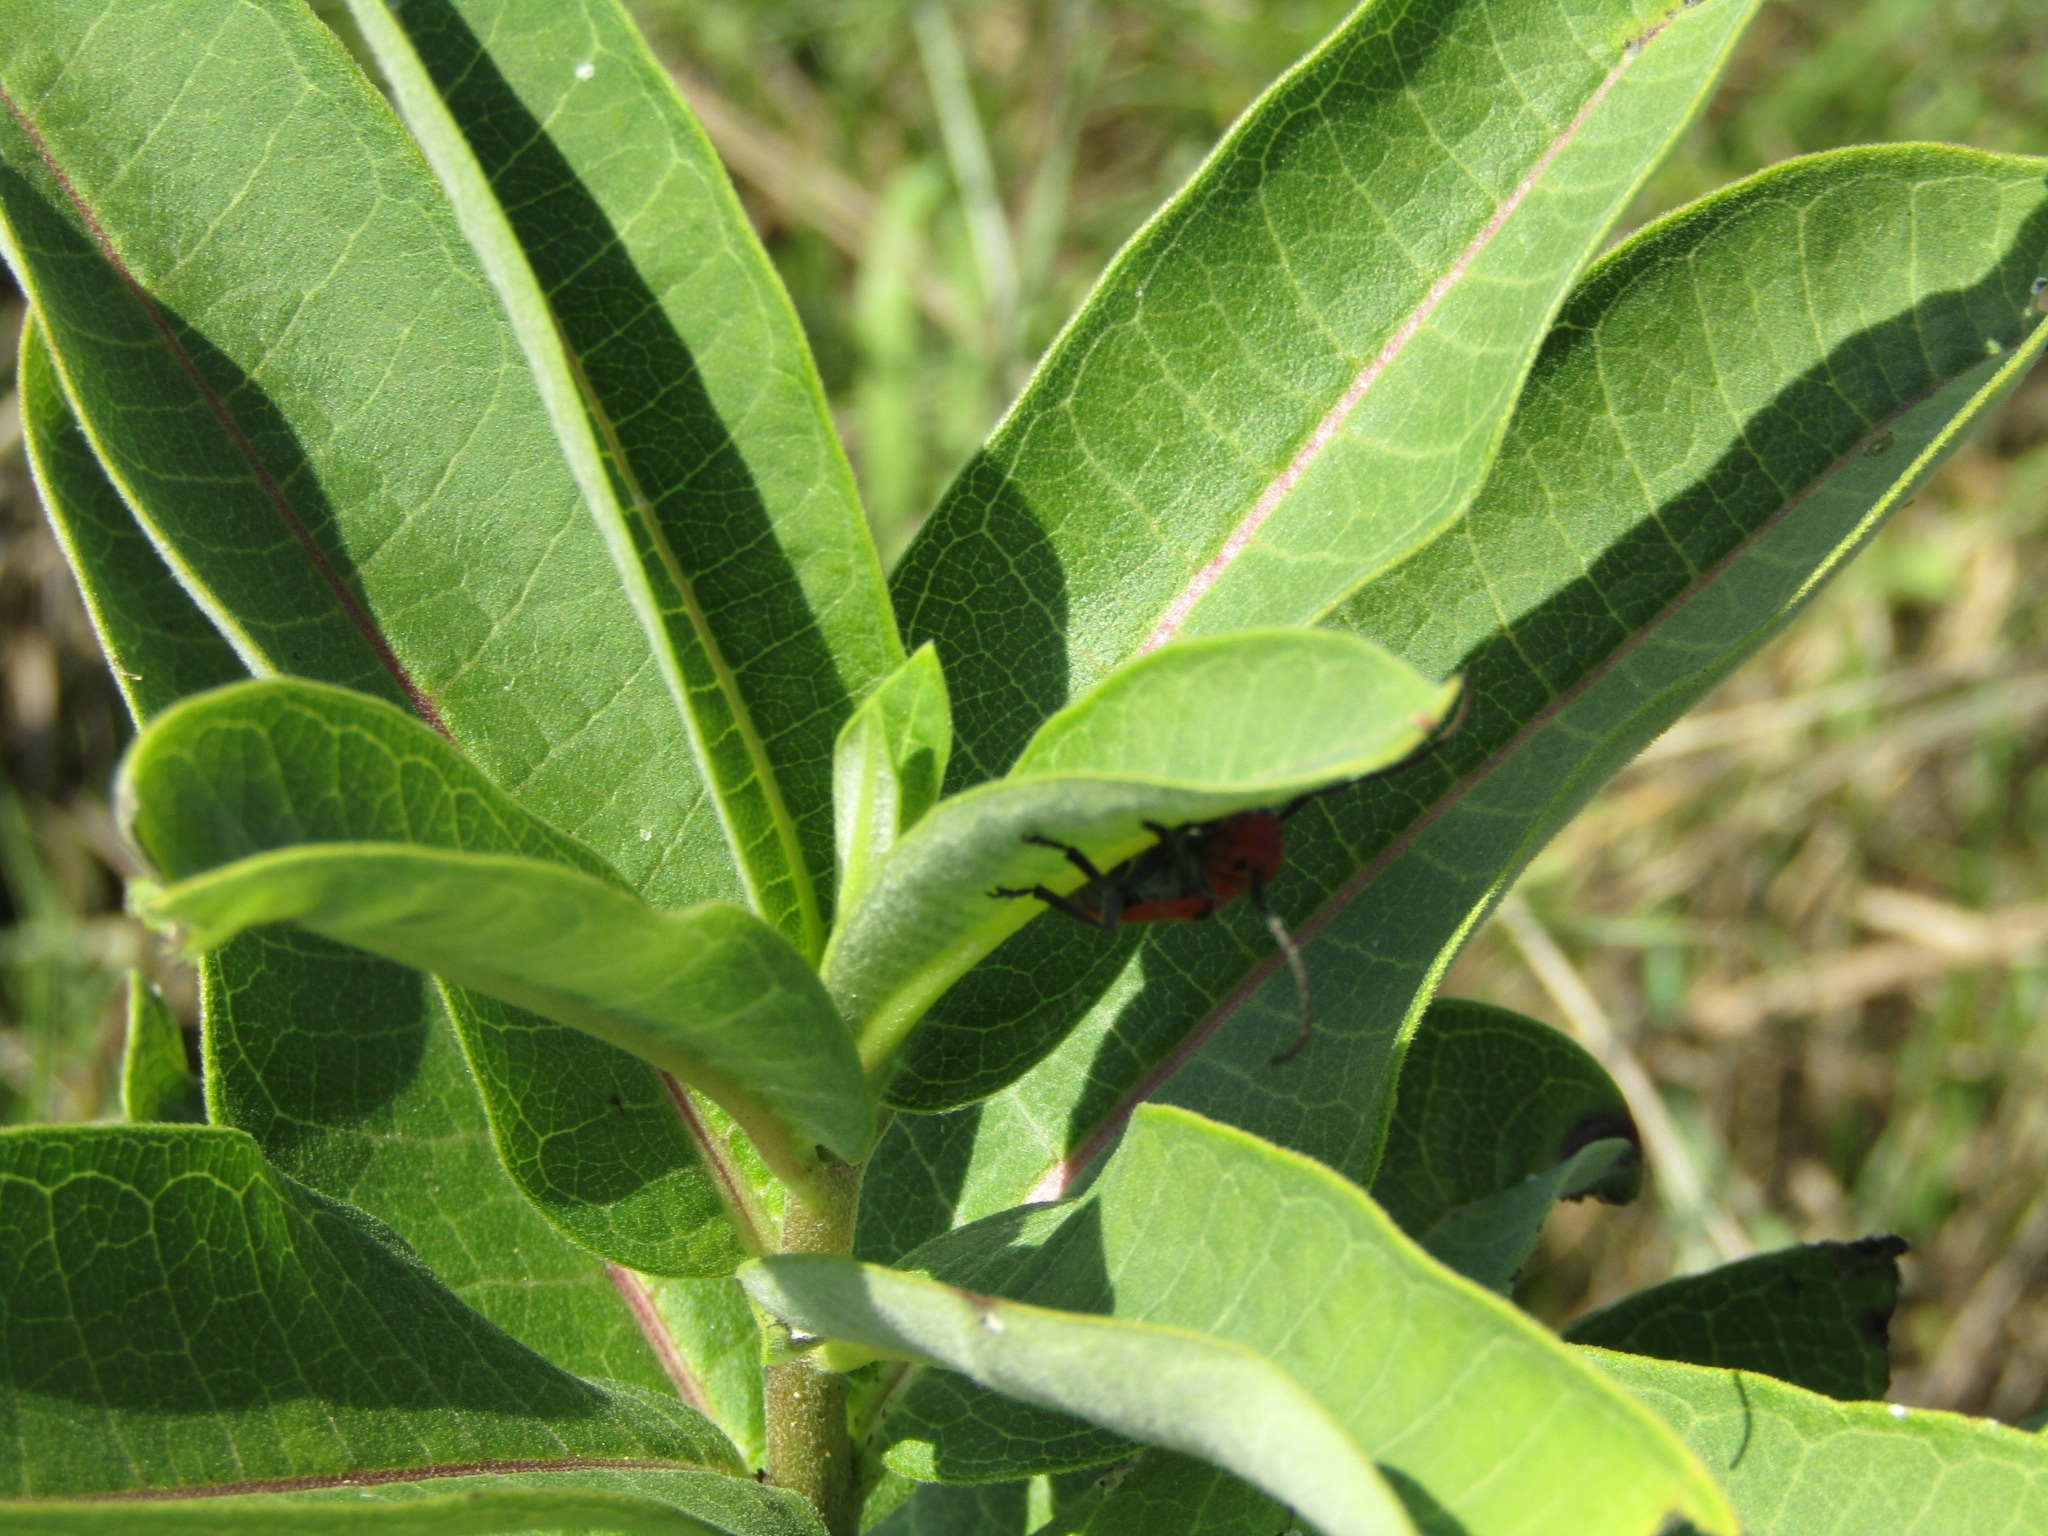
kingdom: Animalia
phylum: Arthropoda
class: Insecta
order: Coleoptera
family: Cerambycidae
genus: Tetraopes
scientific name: Tetraopes tetrophthalmus
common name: Red milkweed beetle
